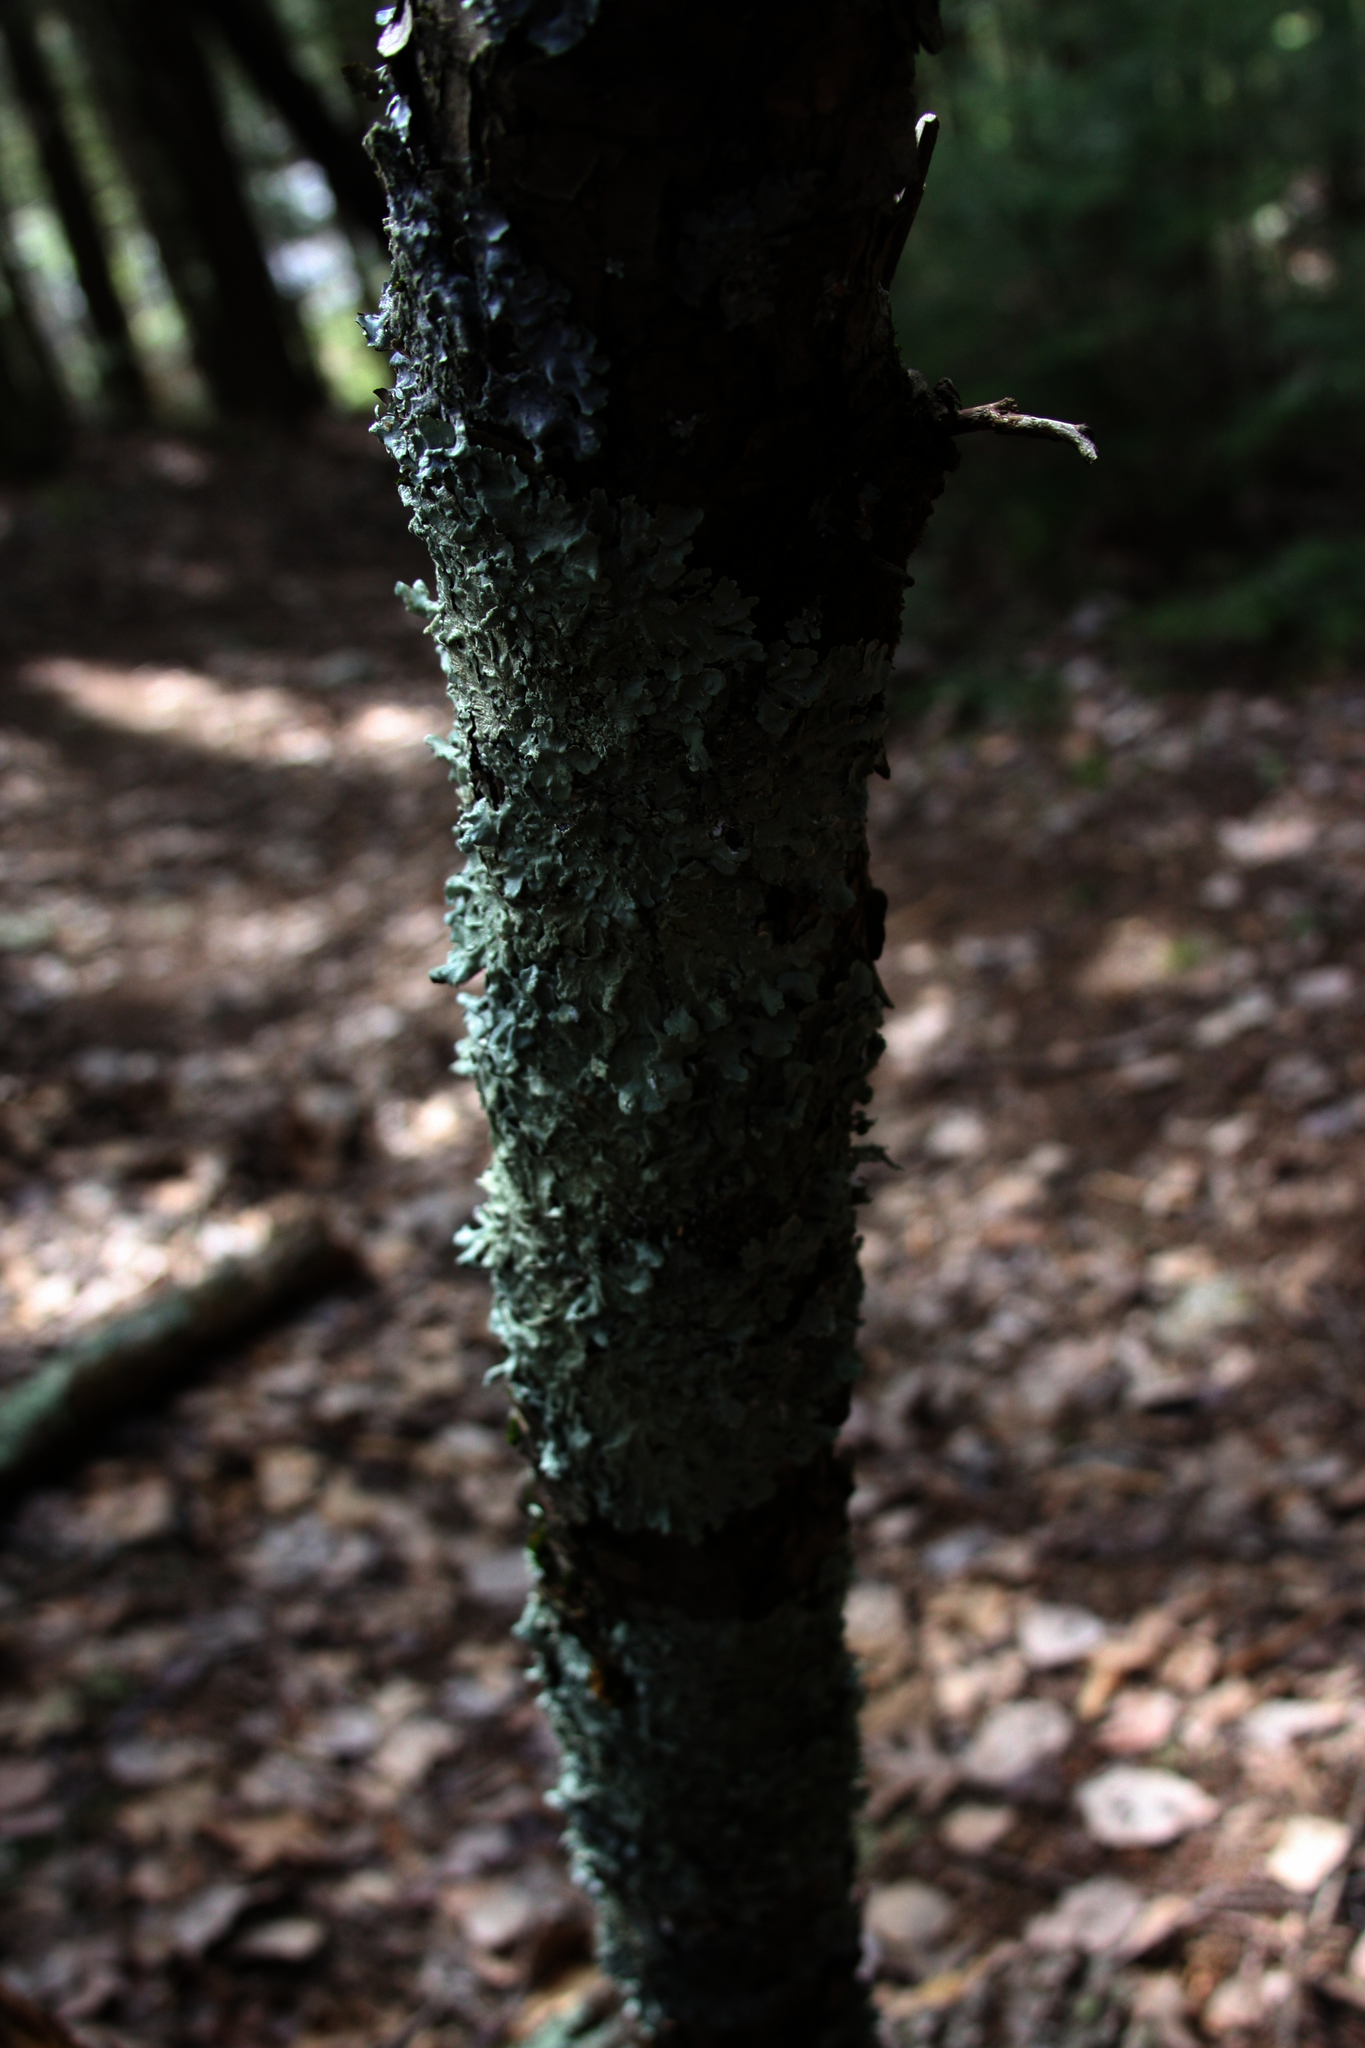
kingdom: Fungi
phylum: Ascomycota
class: Lecanoromycetes
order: Lecanorales
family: Parmeliaceae
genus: Flavoparmelia
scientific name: Flavoparmelia caperata
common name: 40-mile per hour lichen
